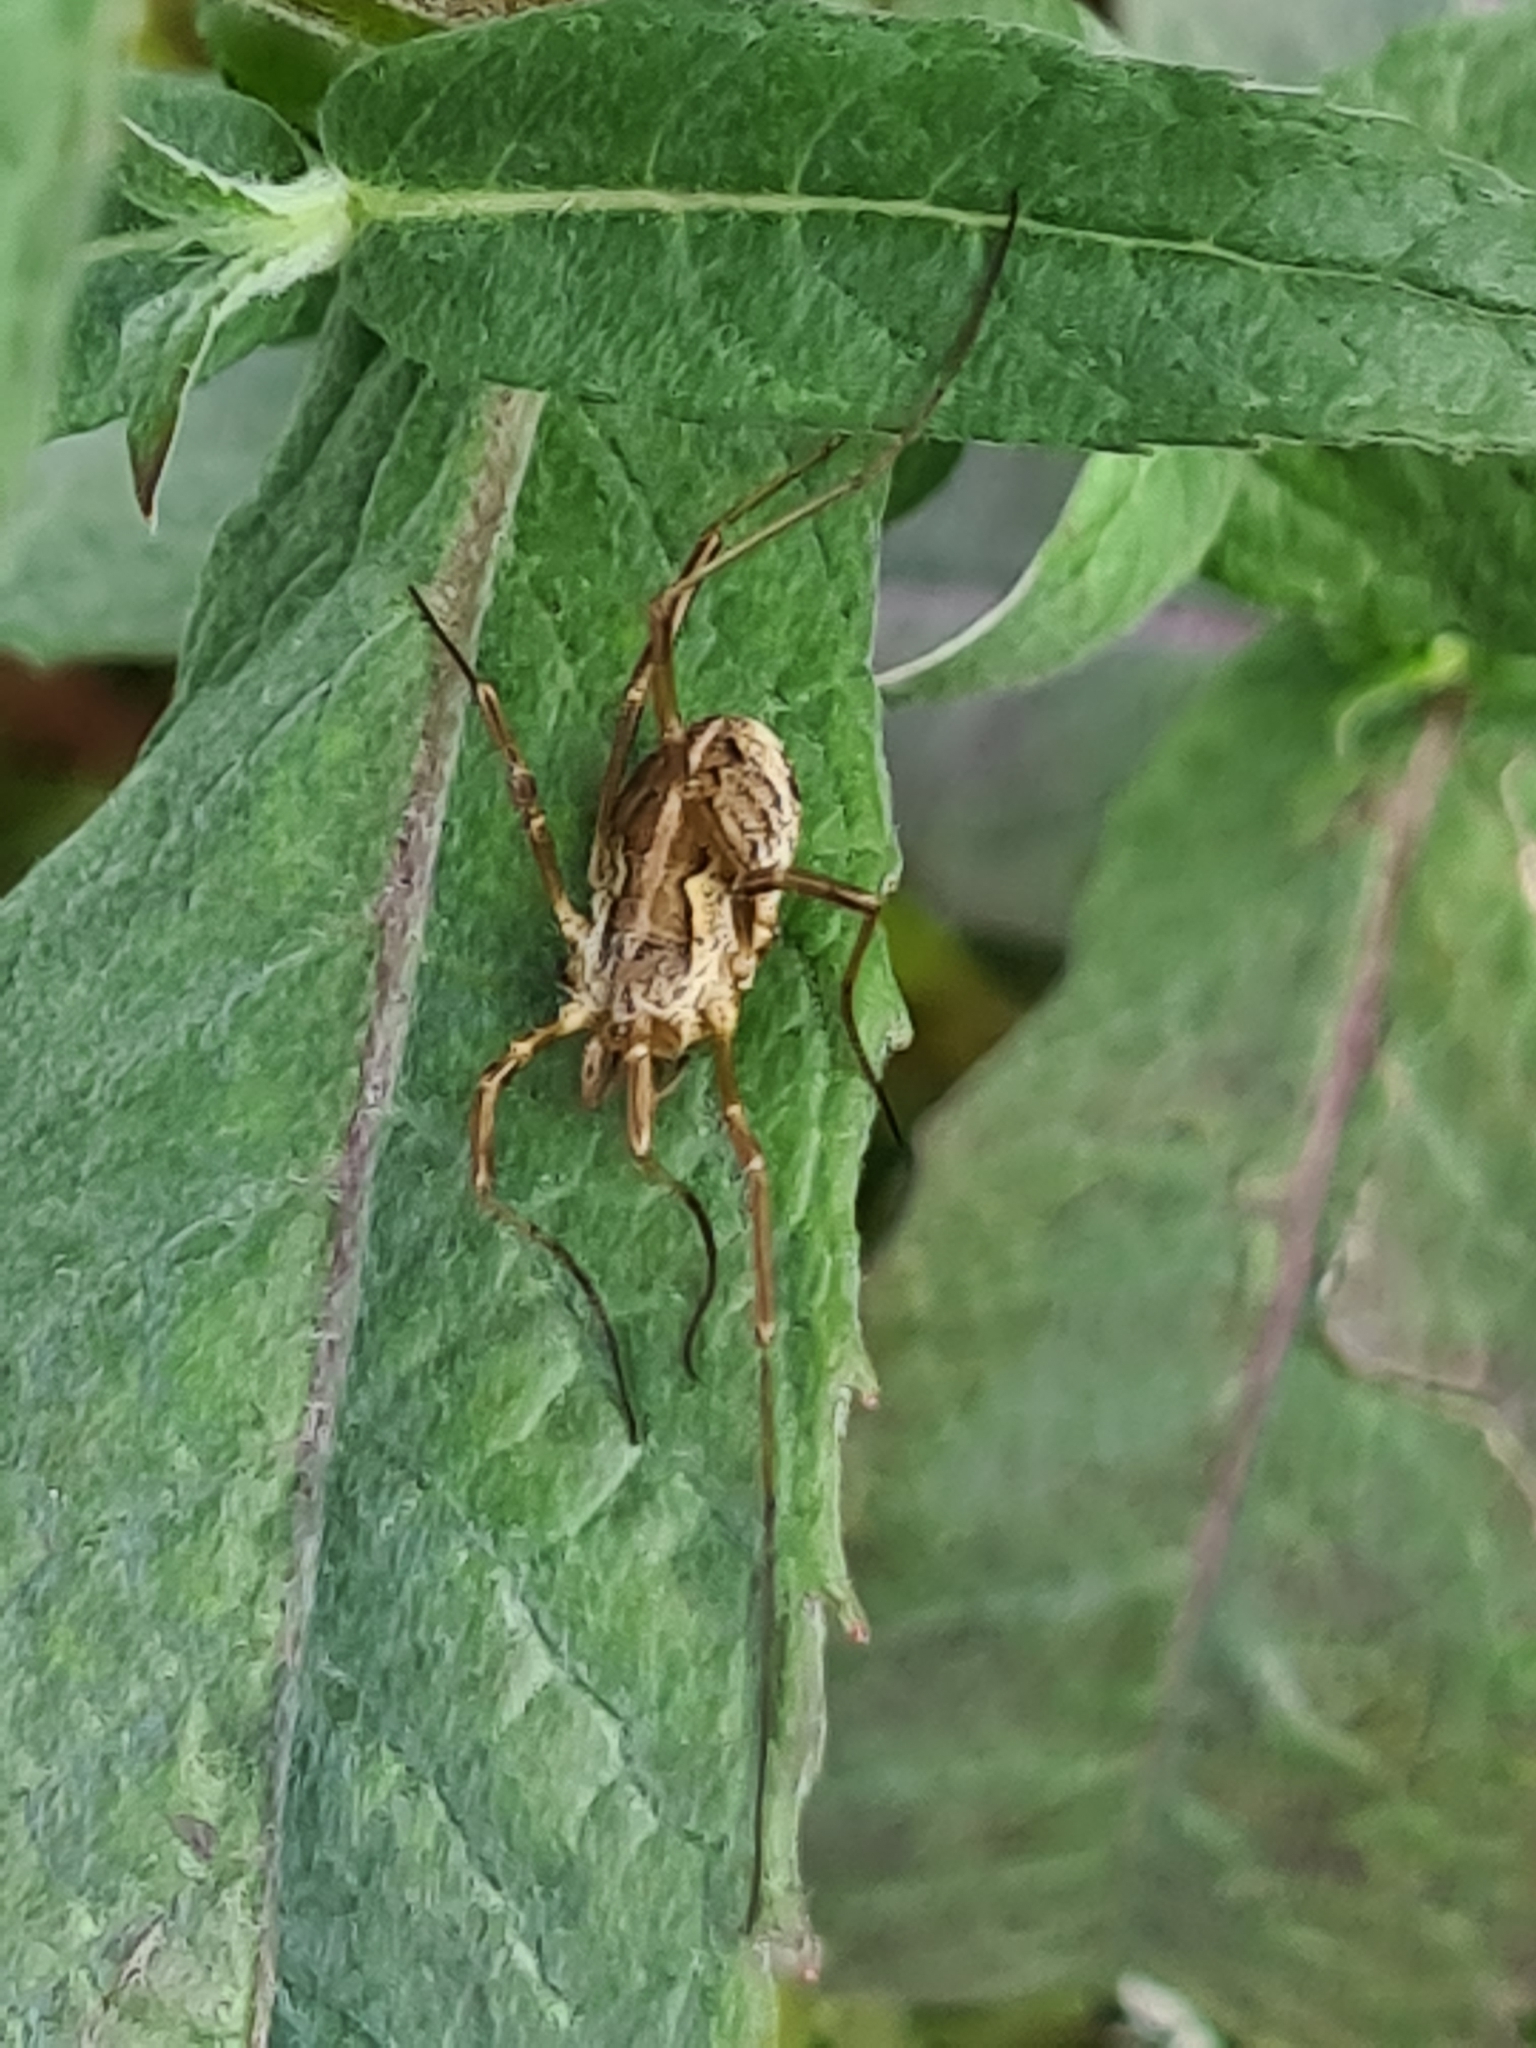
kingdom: Animalia
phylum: Arthropoda
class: Arachnida
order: Opiliones
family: Phalangiidae
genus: Mitopus
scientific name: Mitopus morio
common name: Saddleback harvestman
